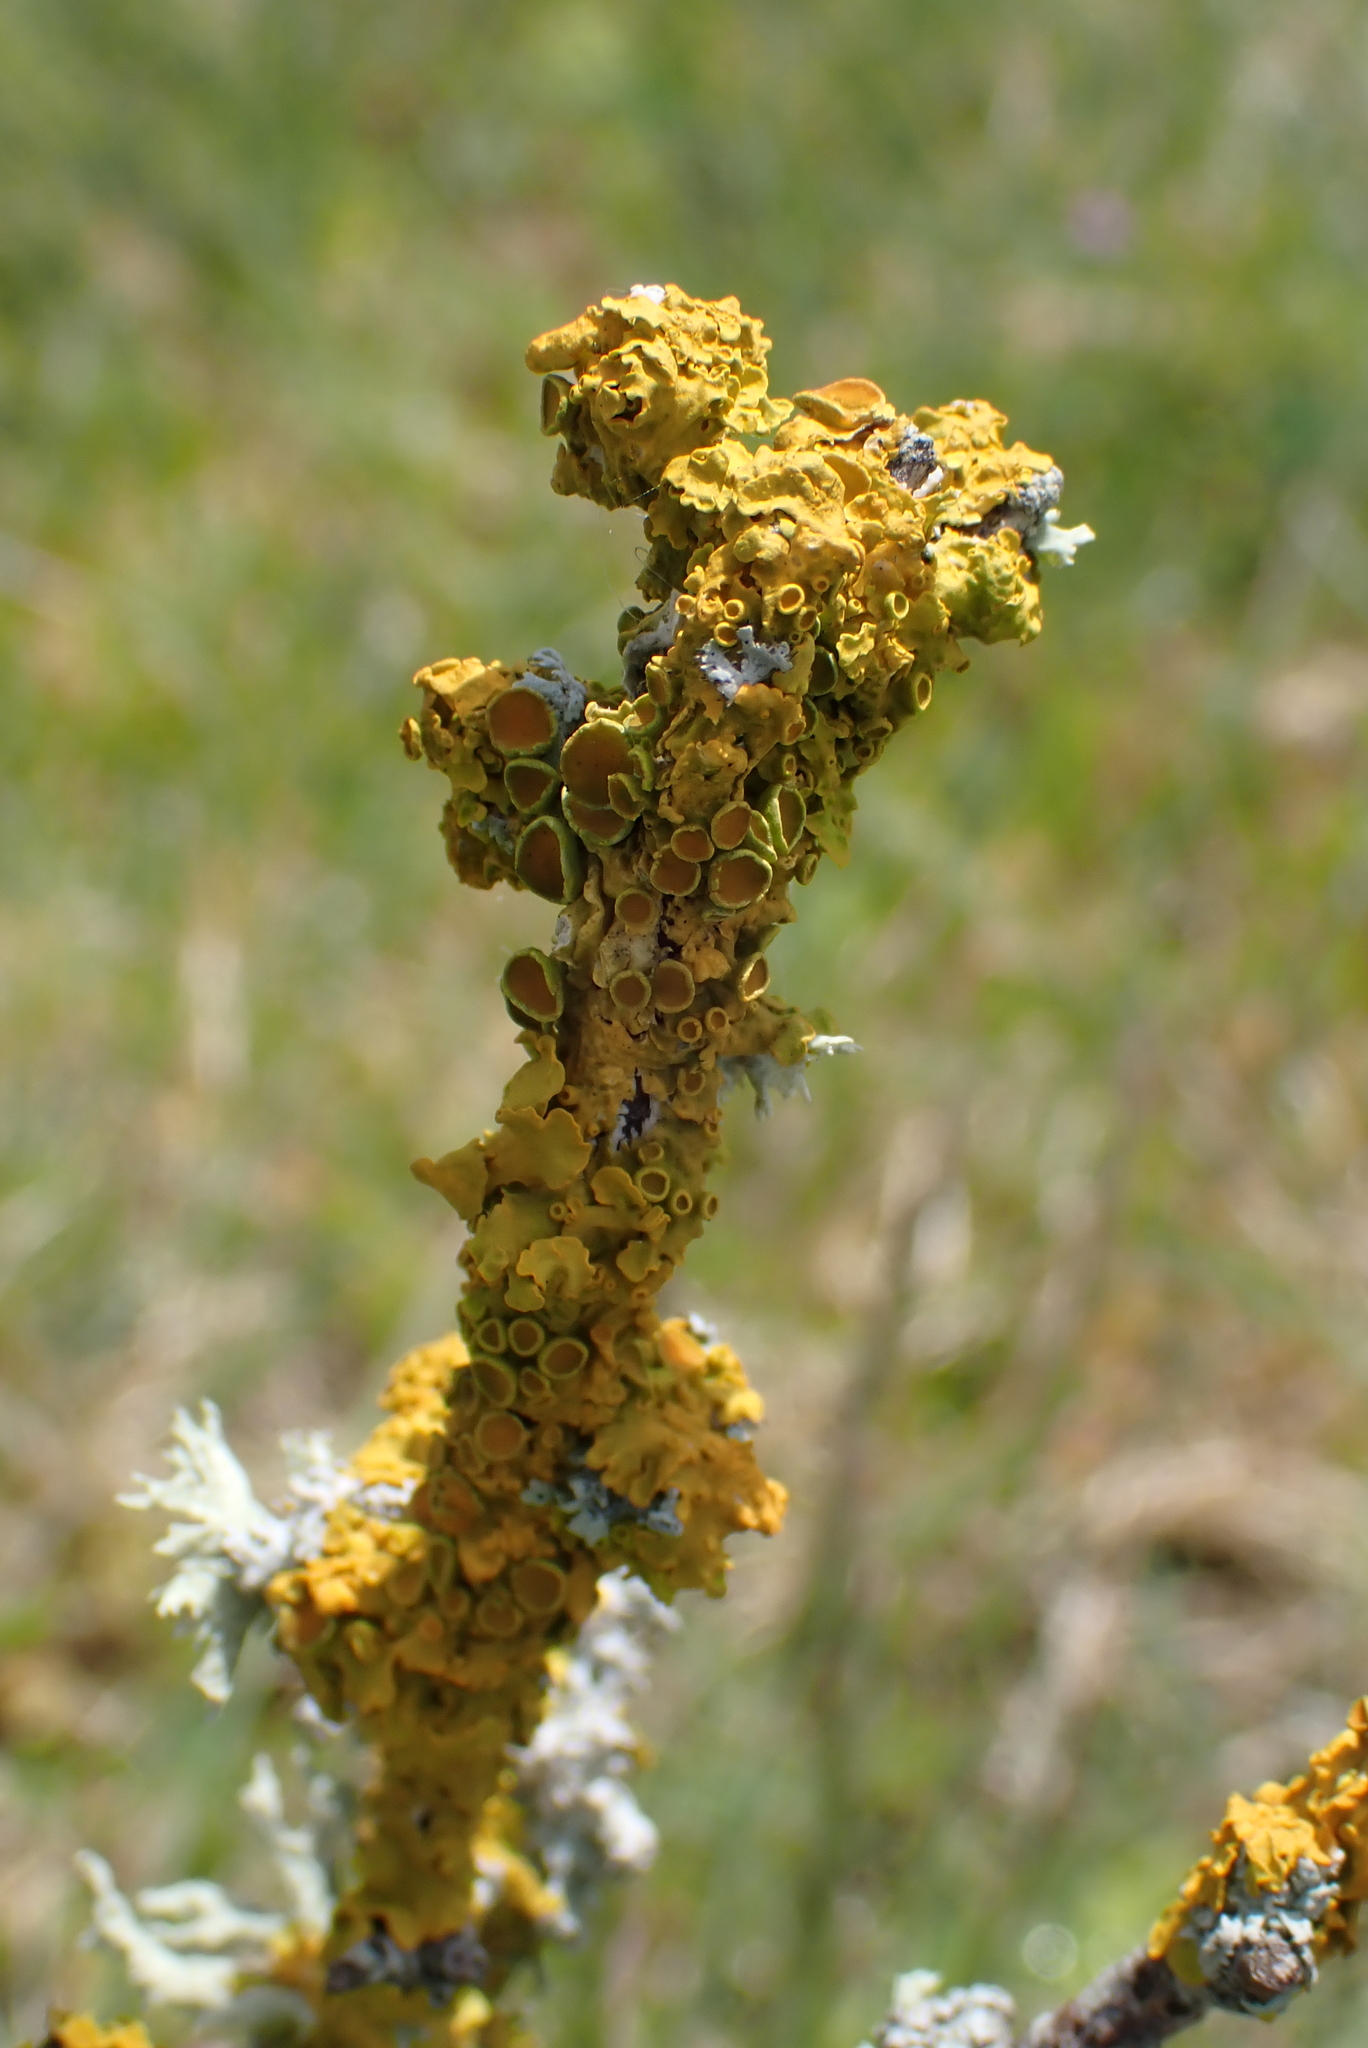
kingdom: Fungi
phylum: Ascomycota
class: Lecanoromycetes
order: Teloschistales
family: Teloschistaceae
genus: Xanthoria
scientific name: Xanthoria parietina
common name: Common orange lichen
